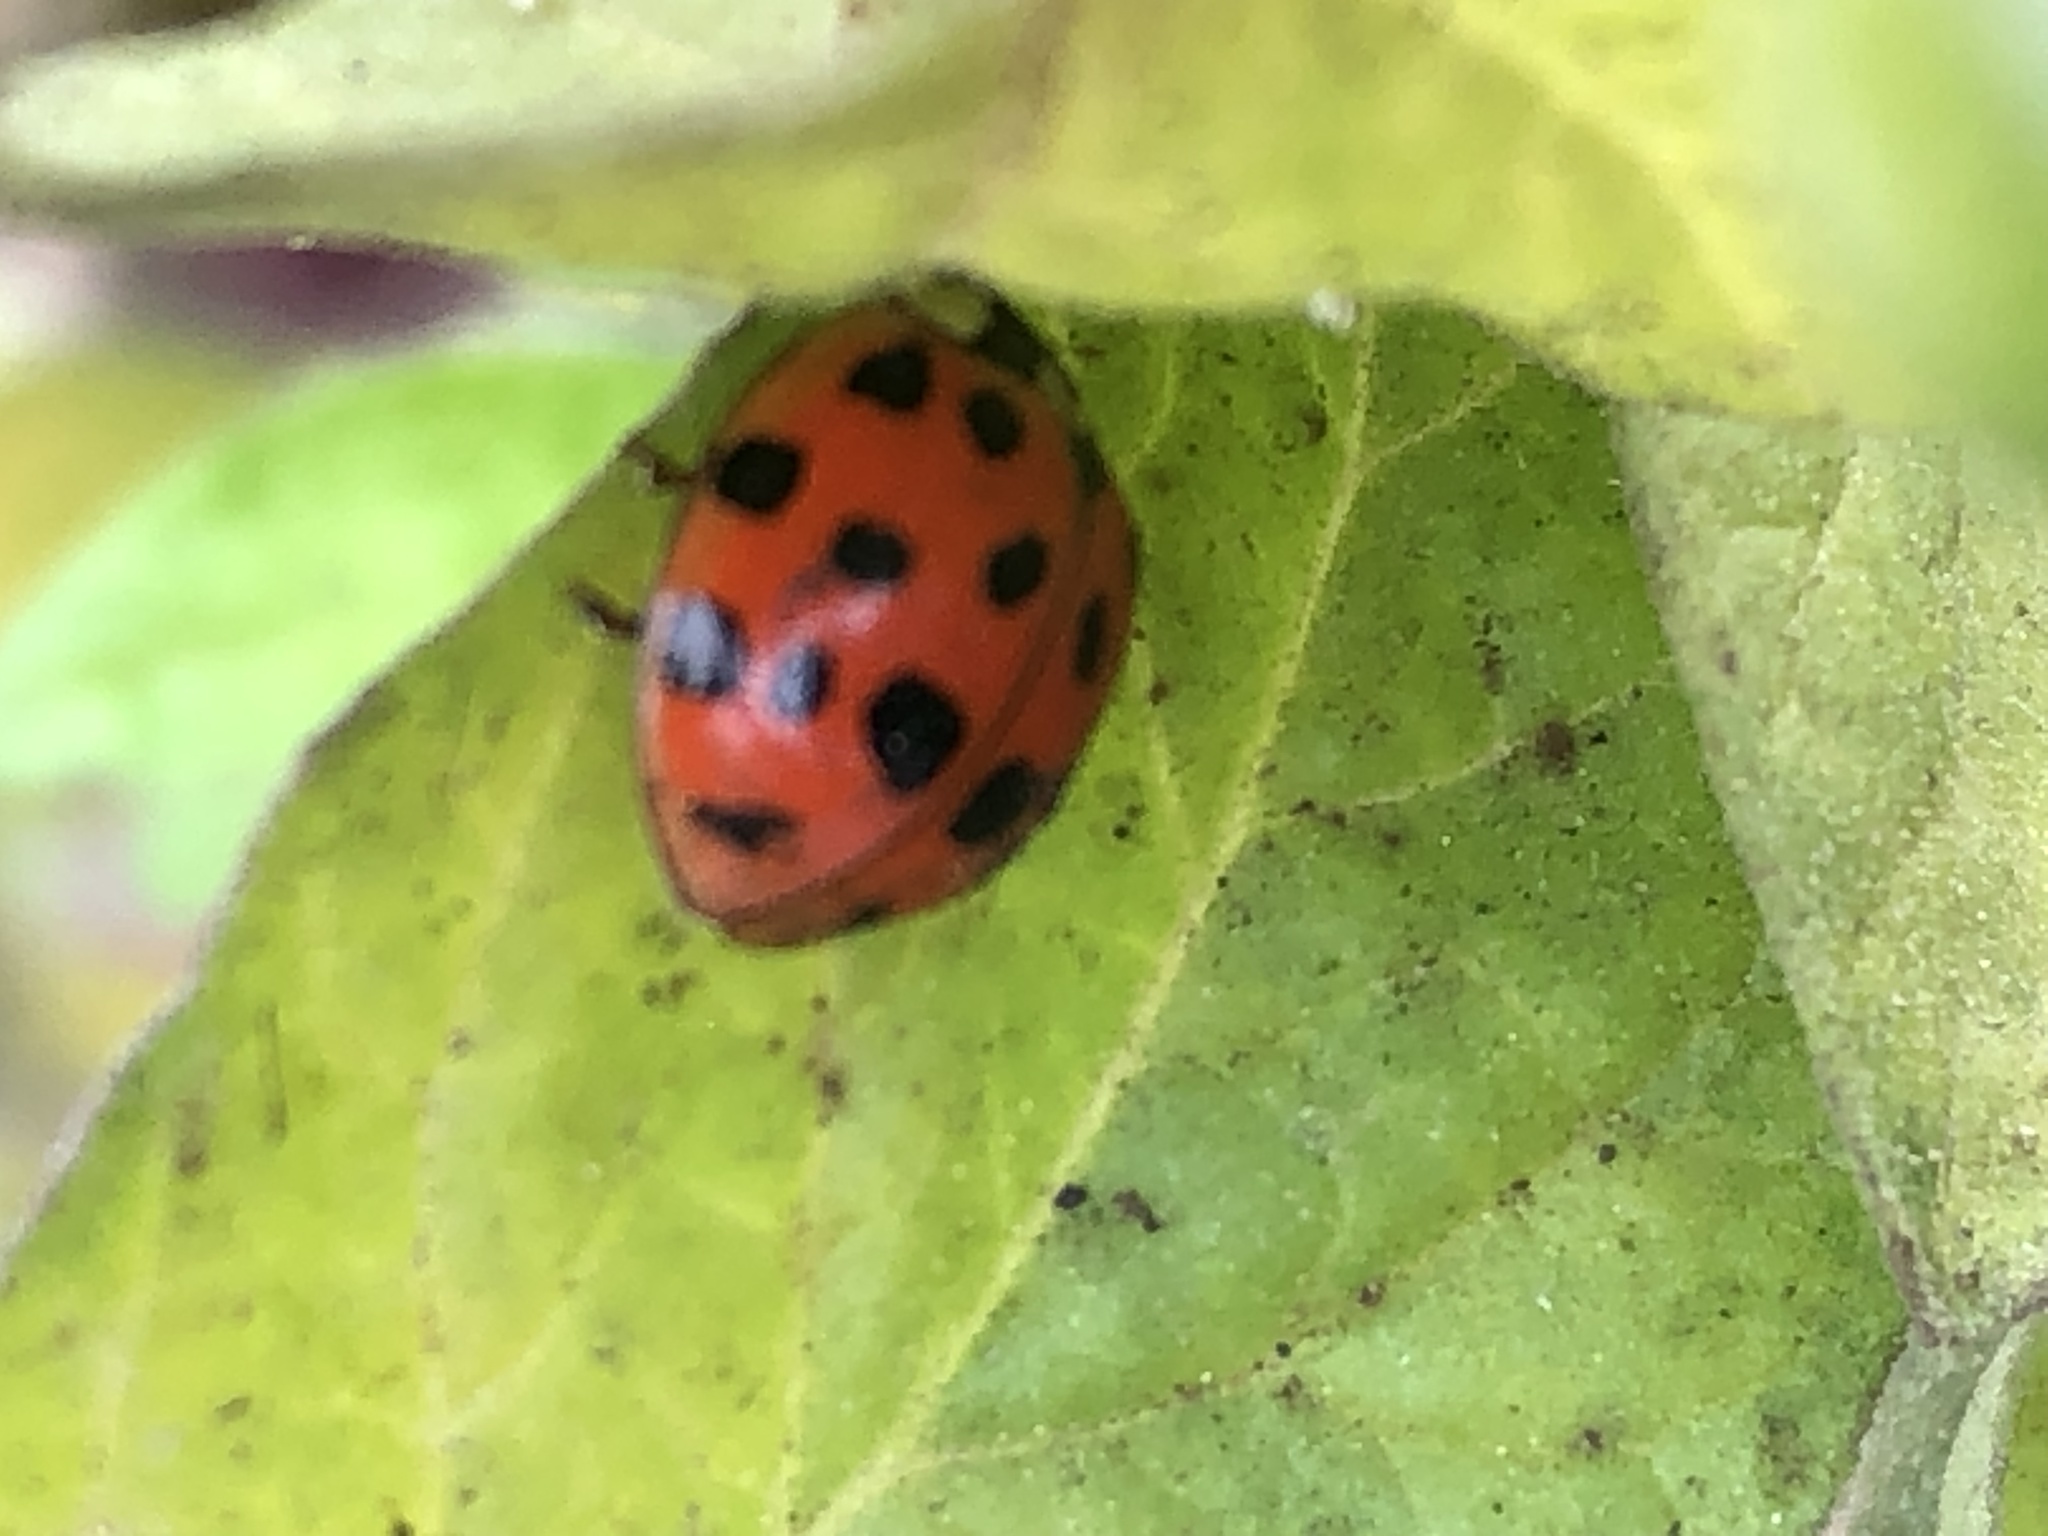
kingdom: Animalia
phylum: Arthropoda
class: Insecta
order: Coleoptera
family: Coccinellidae
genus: Harmonia
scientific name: Harmonia axyridis
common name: Harlequin ladybird
